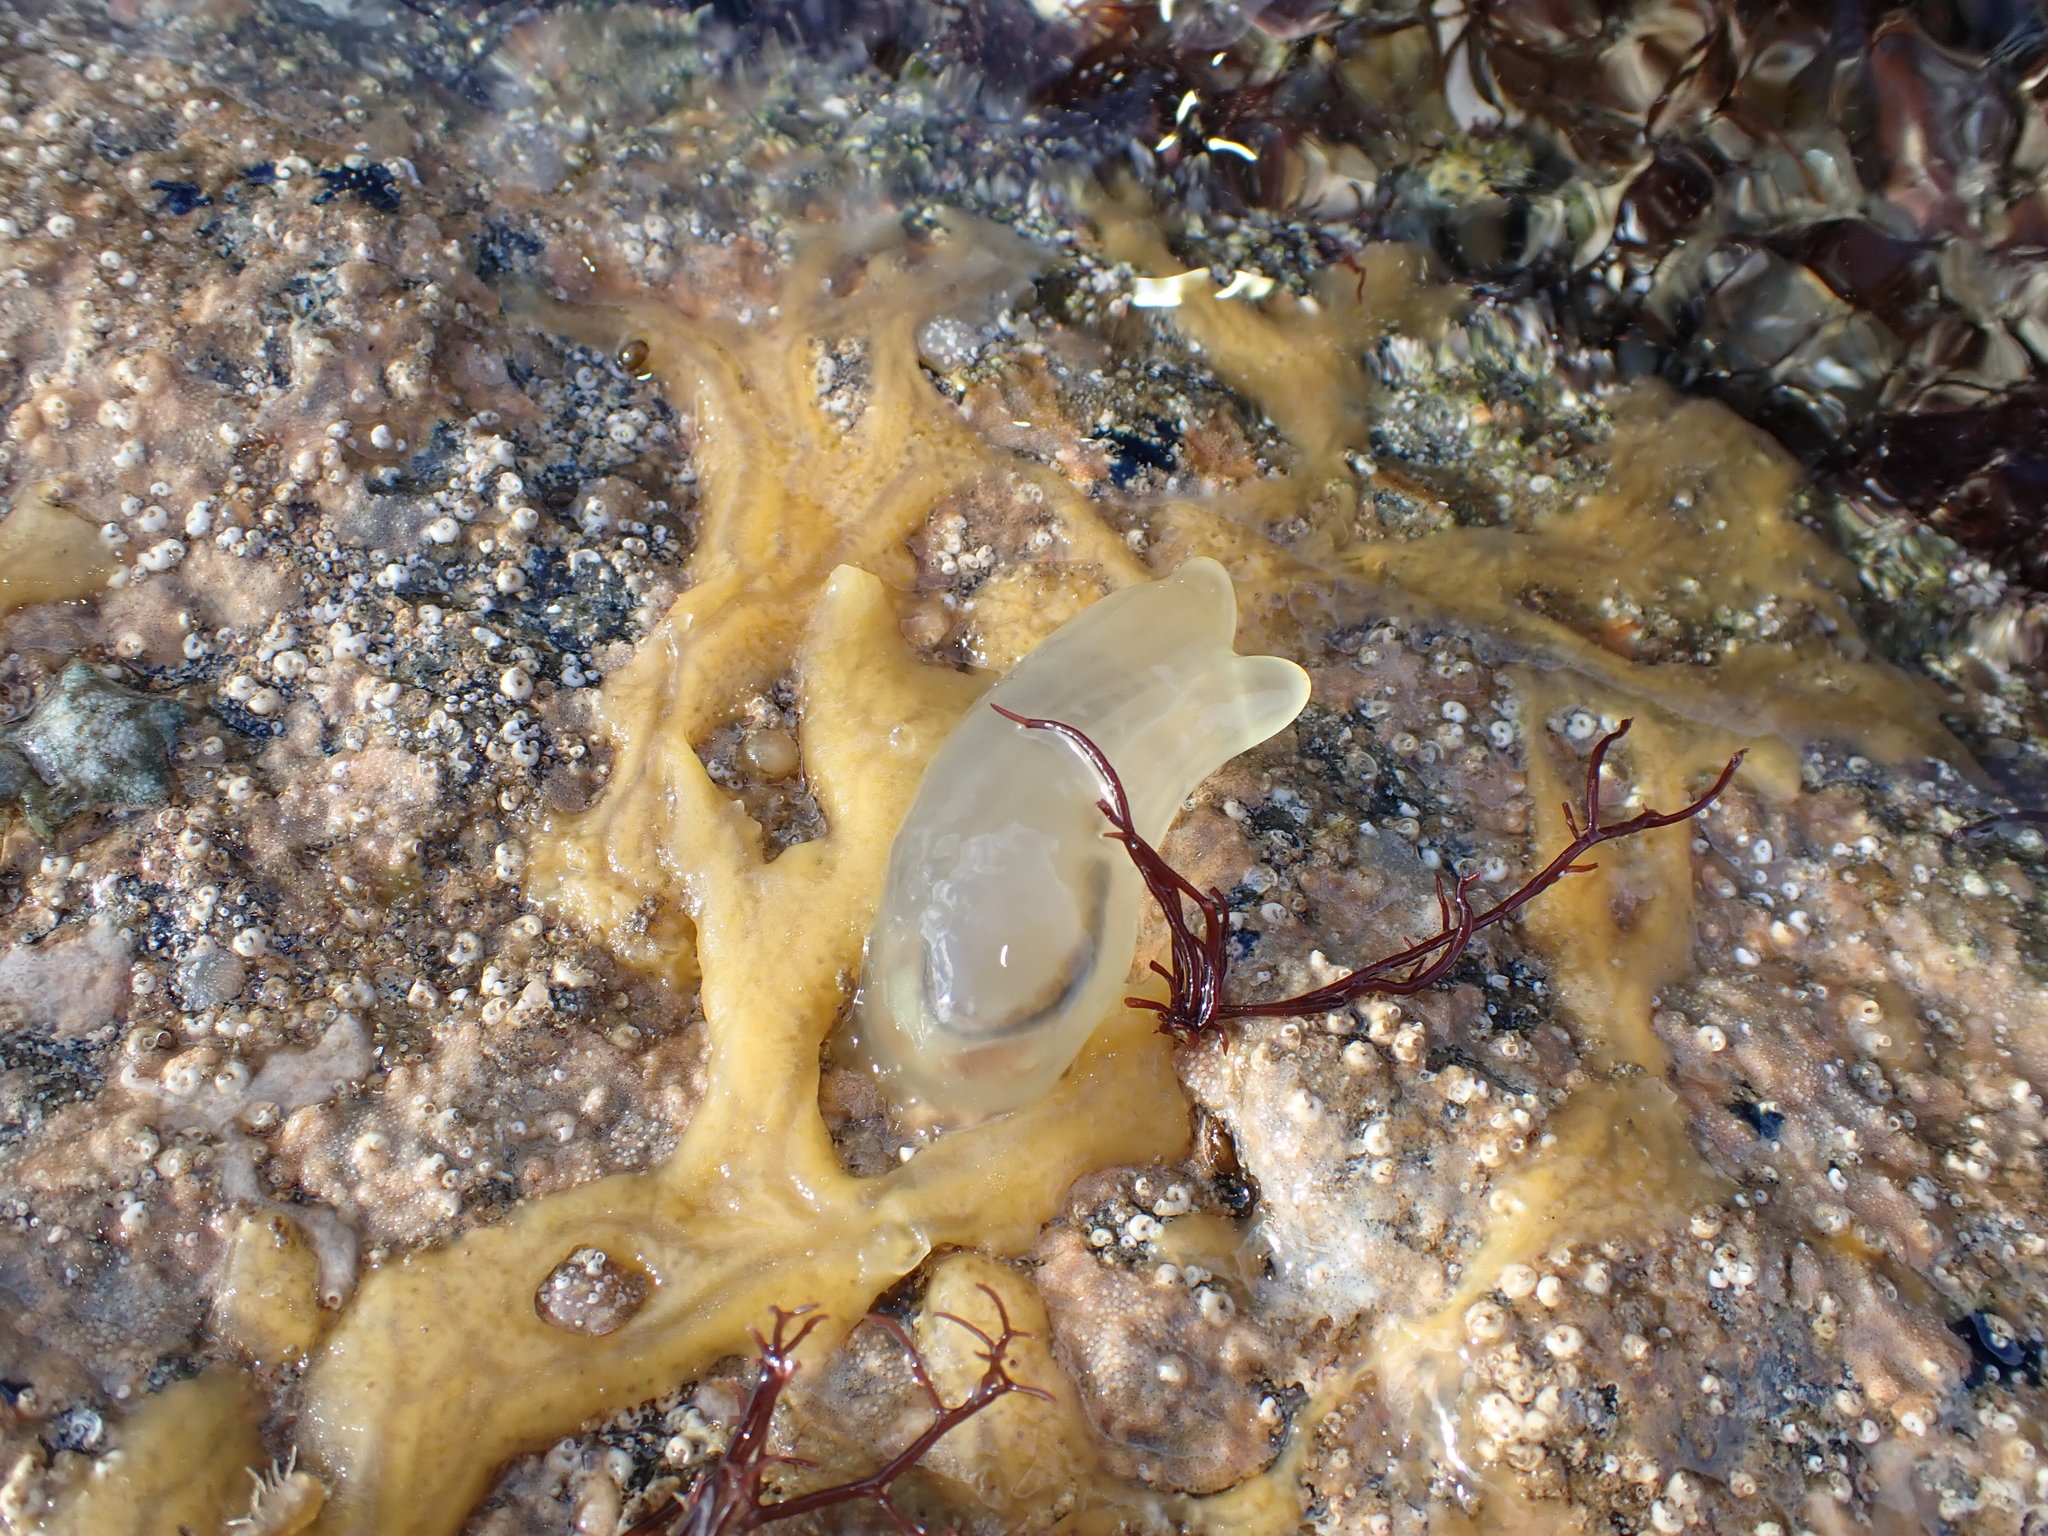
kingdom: Animalia
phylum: Chordata
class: Ascidiacea
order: Phlebobranchia
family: Cionidae
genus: Ciona
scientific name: Ciona intestinalis
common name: Vase tunicate
